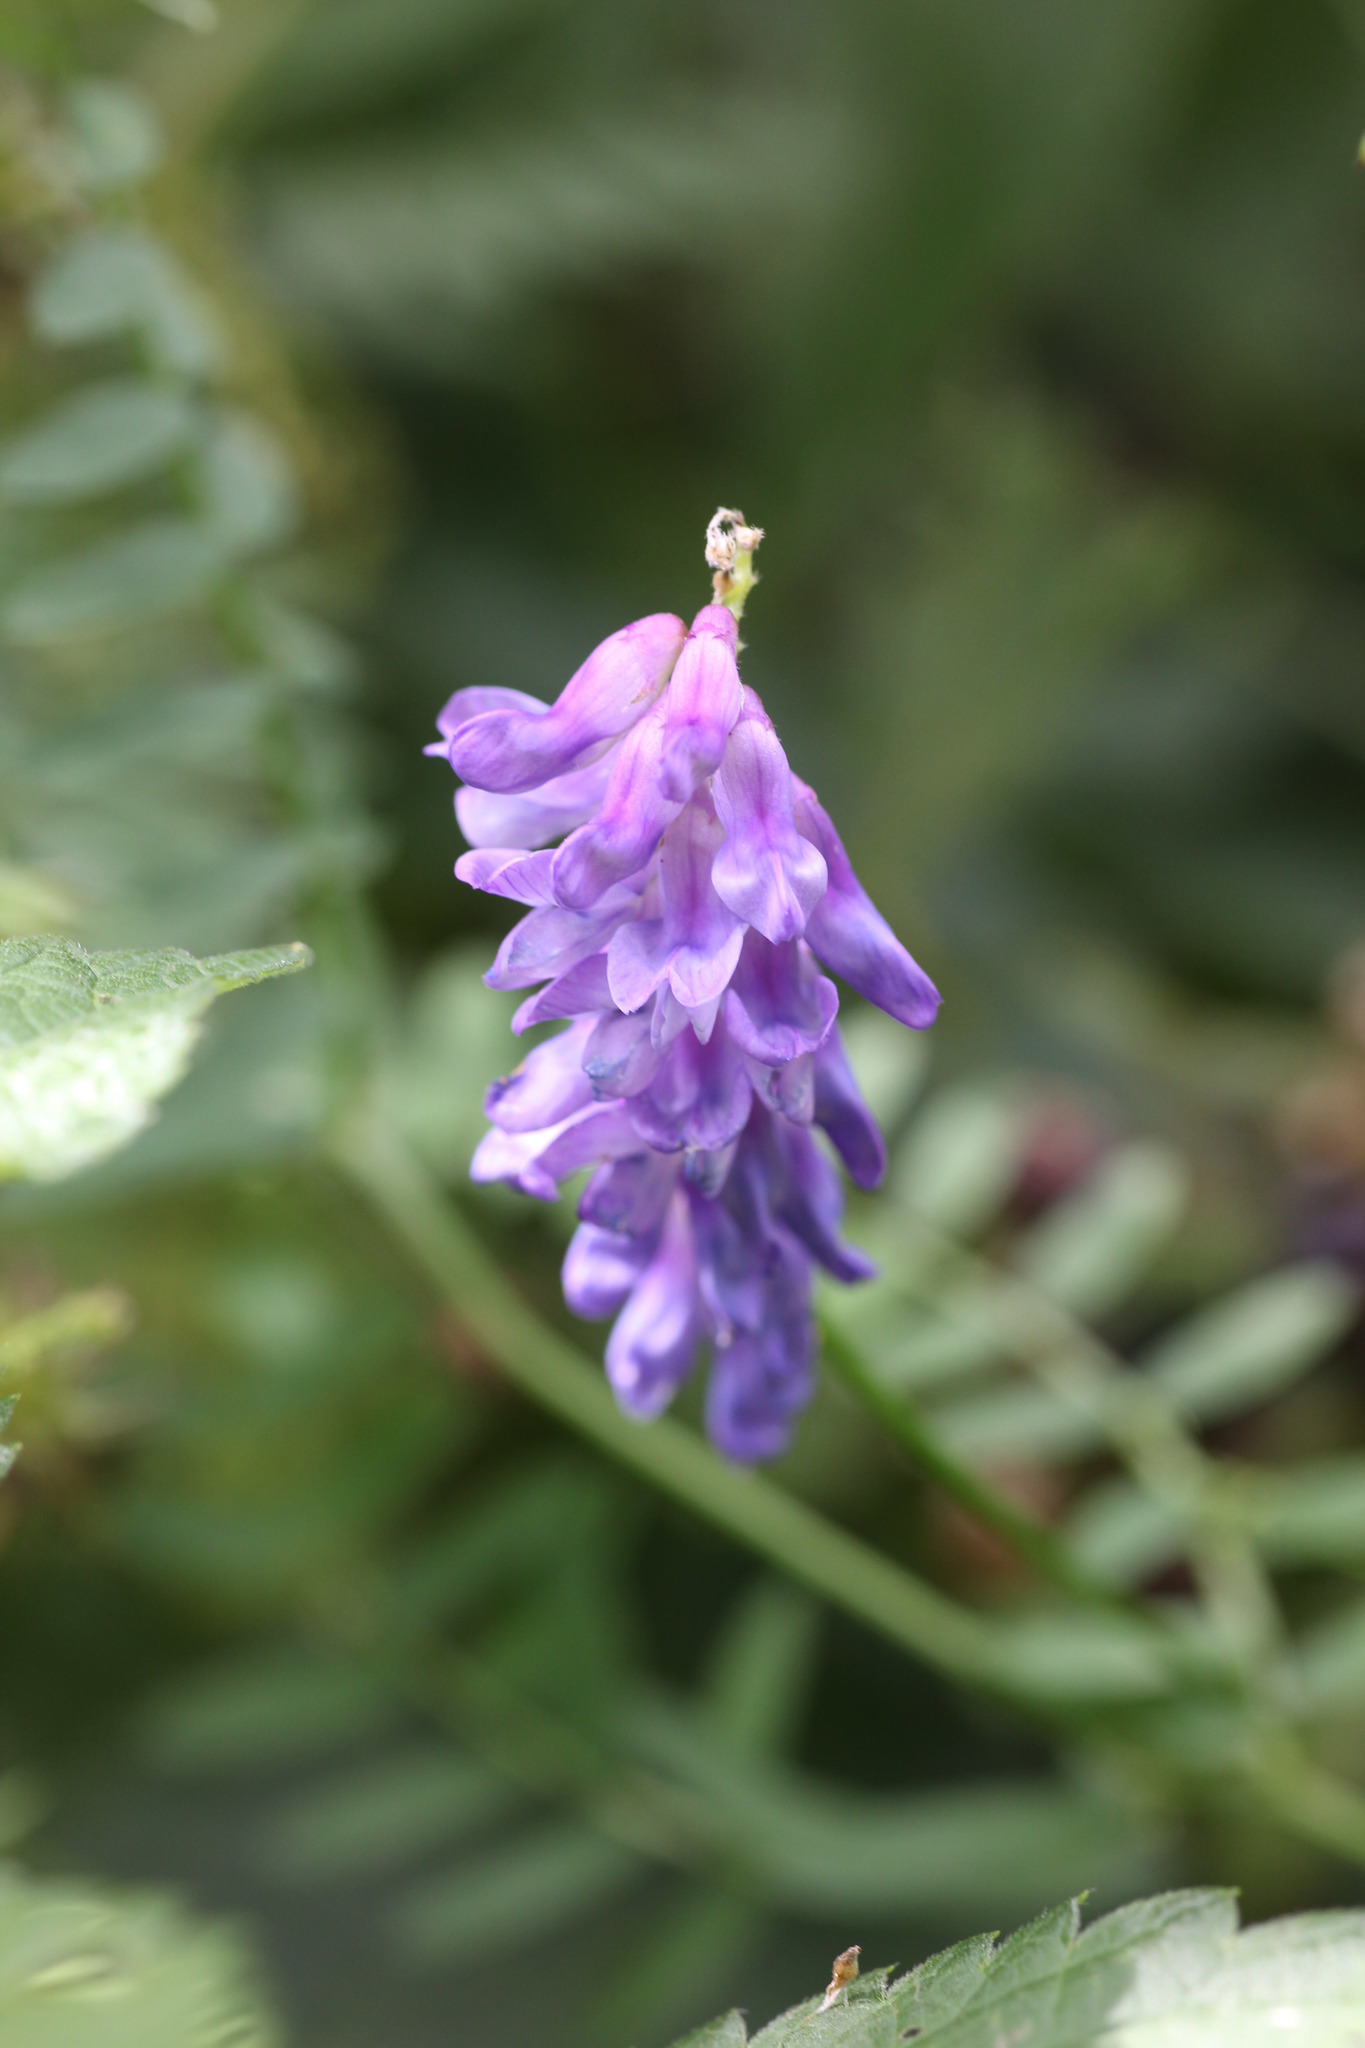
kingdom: Plantae
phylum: Tracheophyta
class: Magnoliopsida
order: Fabales
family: Fabaceae
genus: Vicia
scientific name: Vicia cracca
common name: Bird vetch
